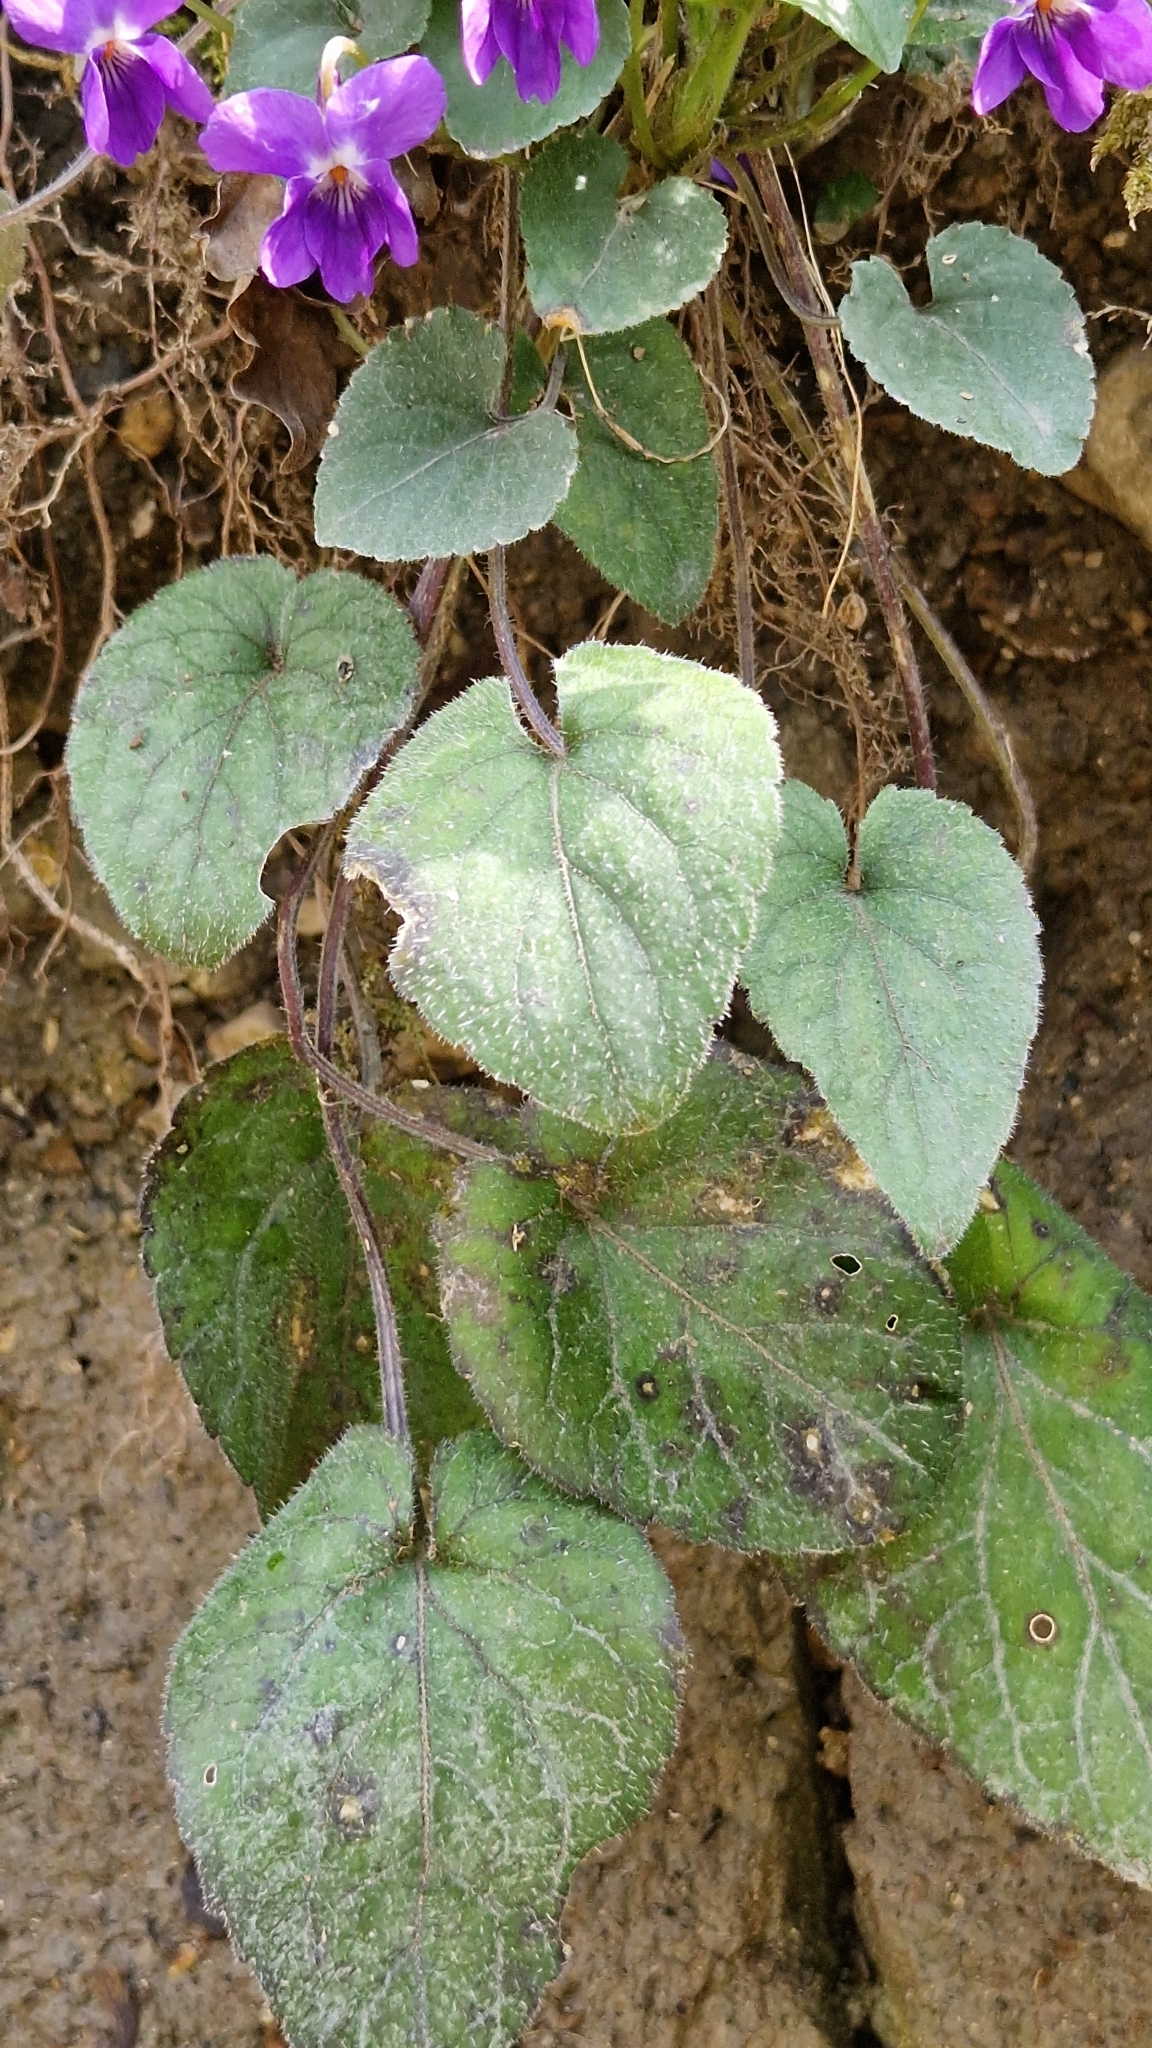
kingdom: Plantae
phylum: Tracheophyta
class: Magnoliopsida
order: Malpighiales
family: Violaceae
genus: Viola
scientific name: Viola alba
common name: White violet
